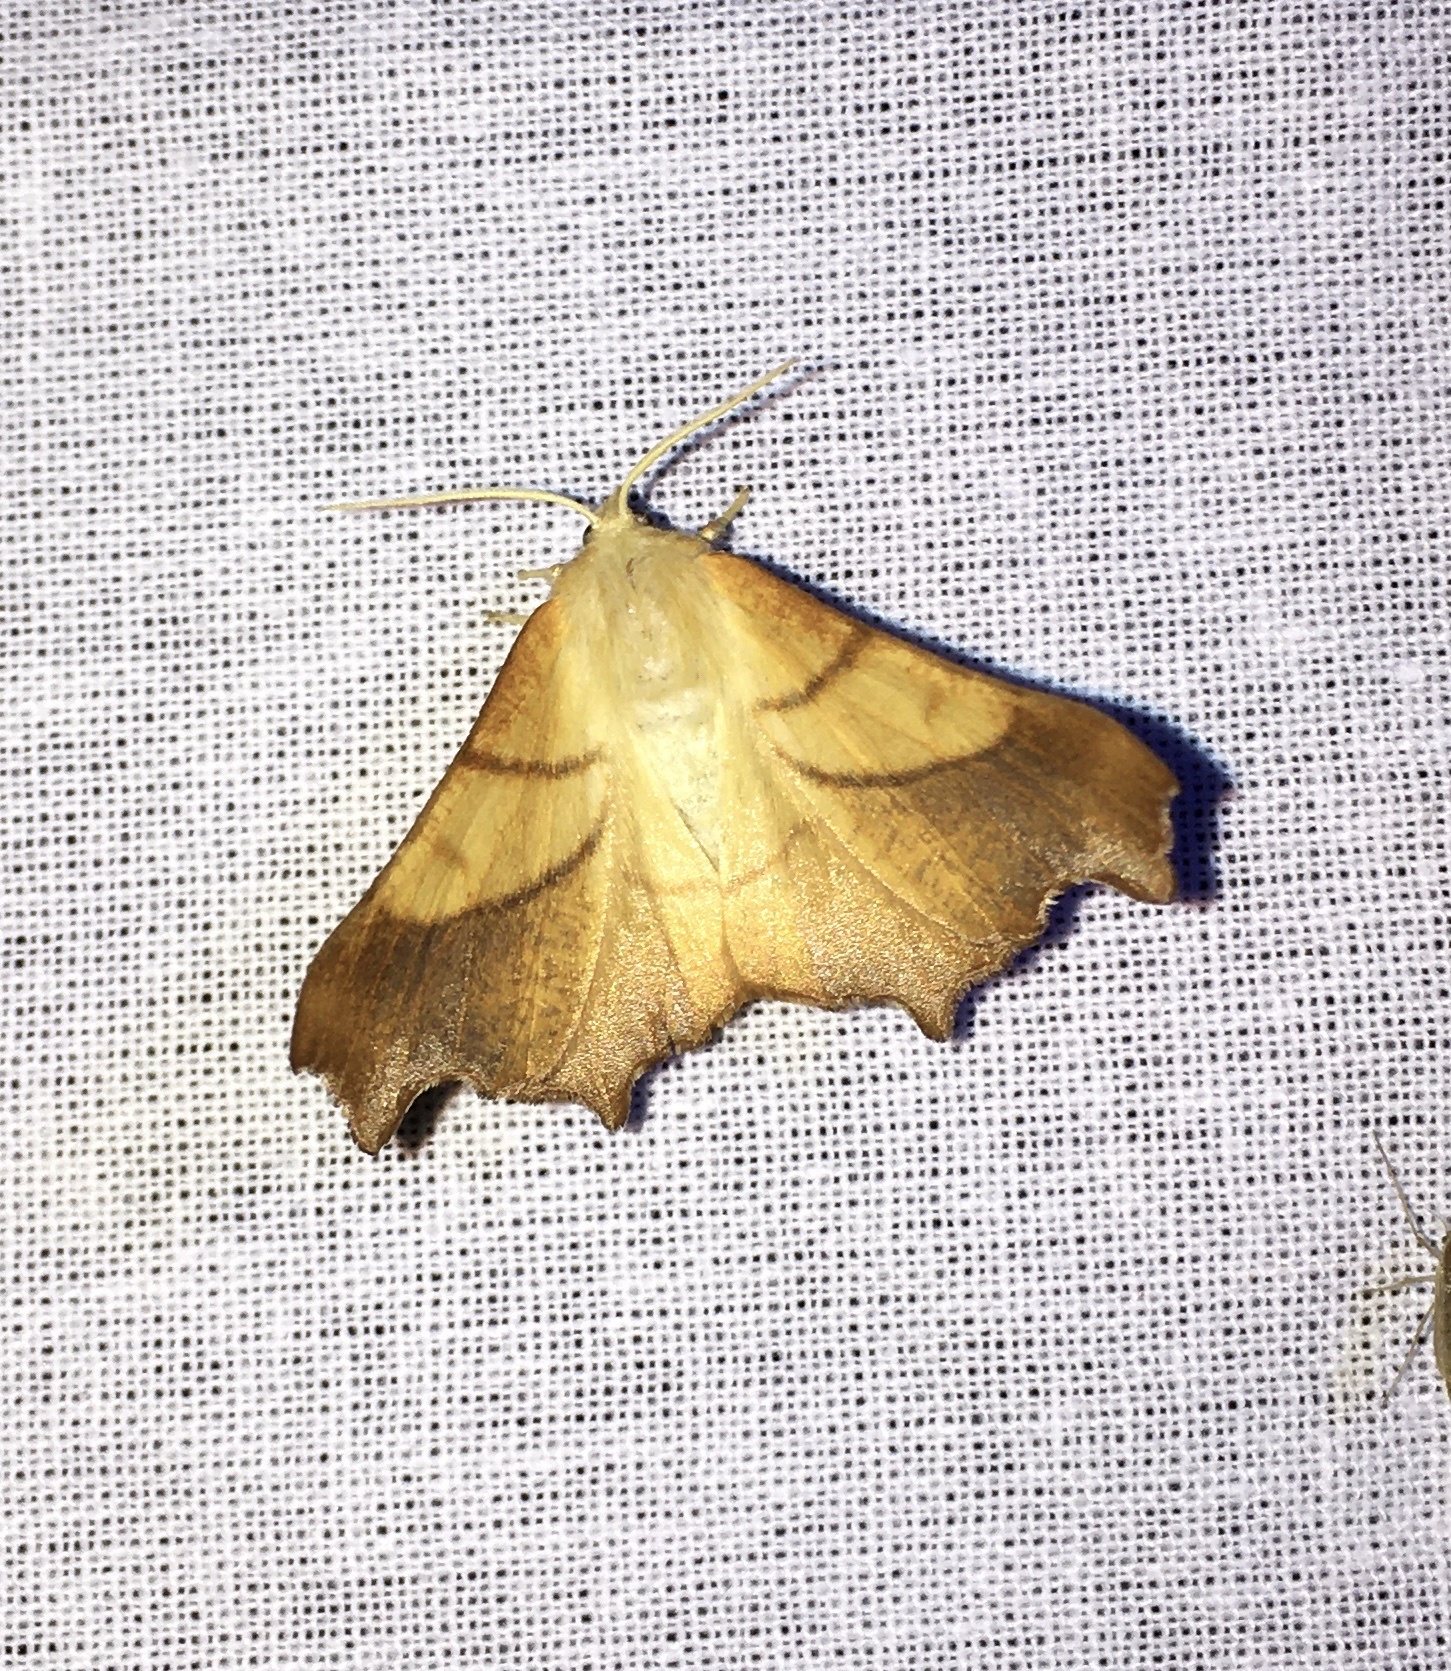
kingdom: Animalia
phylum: Arthropoda
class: Insecta
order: Lepidoptera
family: Geometridae
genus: Ennomos
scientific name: Ennomos fuscantaria
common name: Dusky thorn
